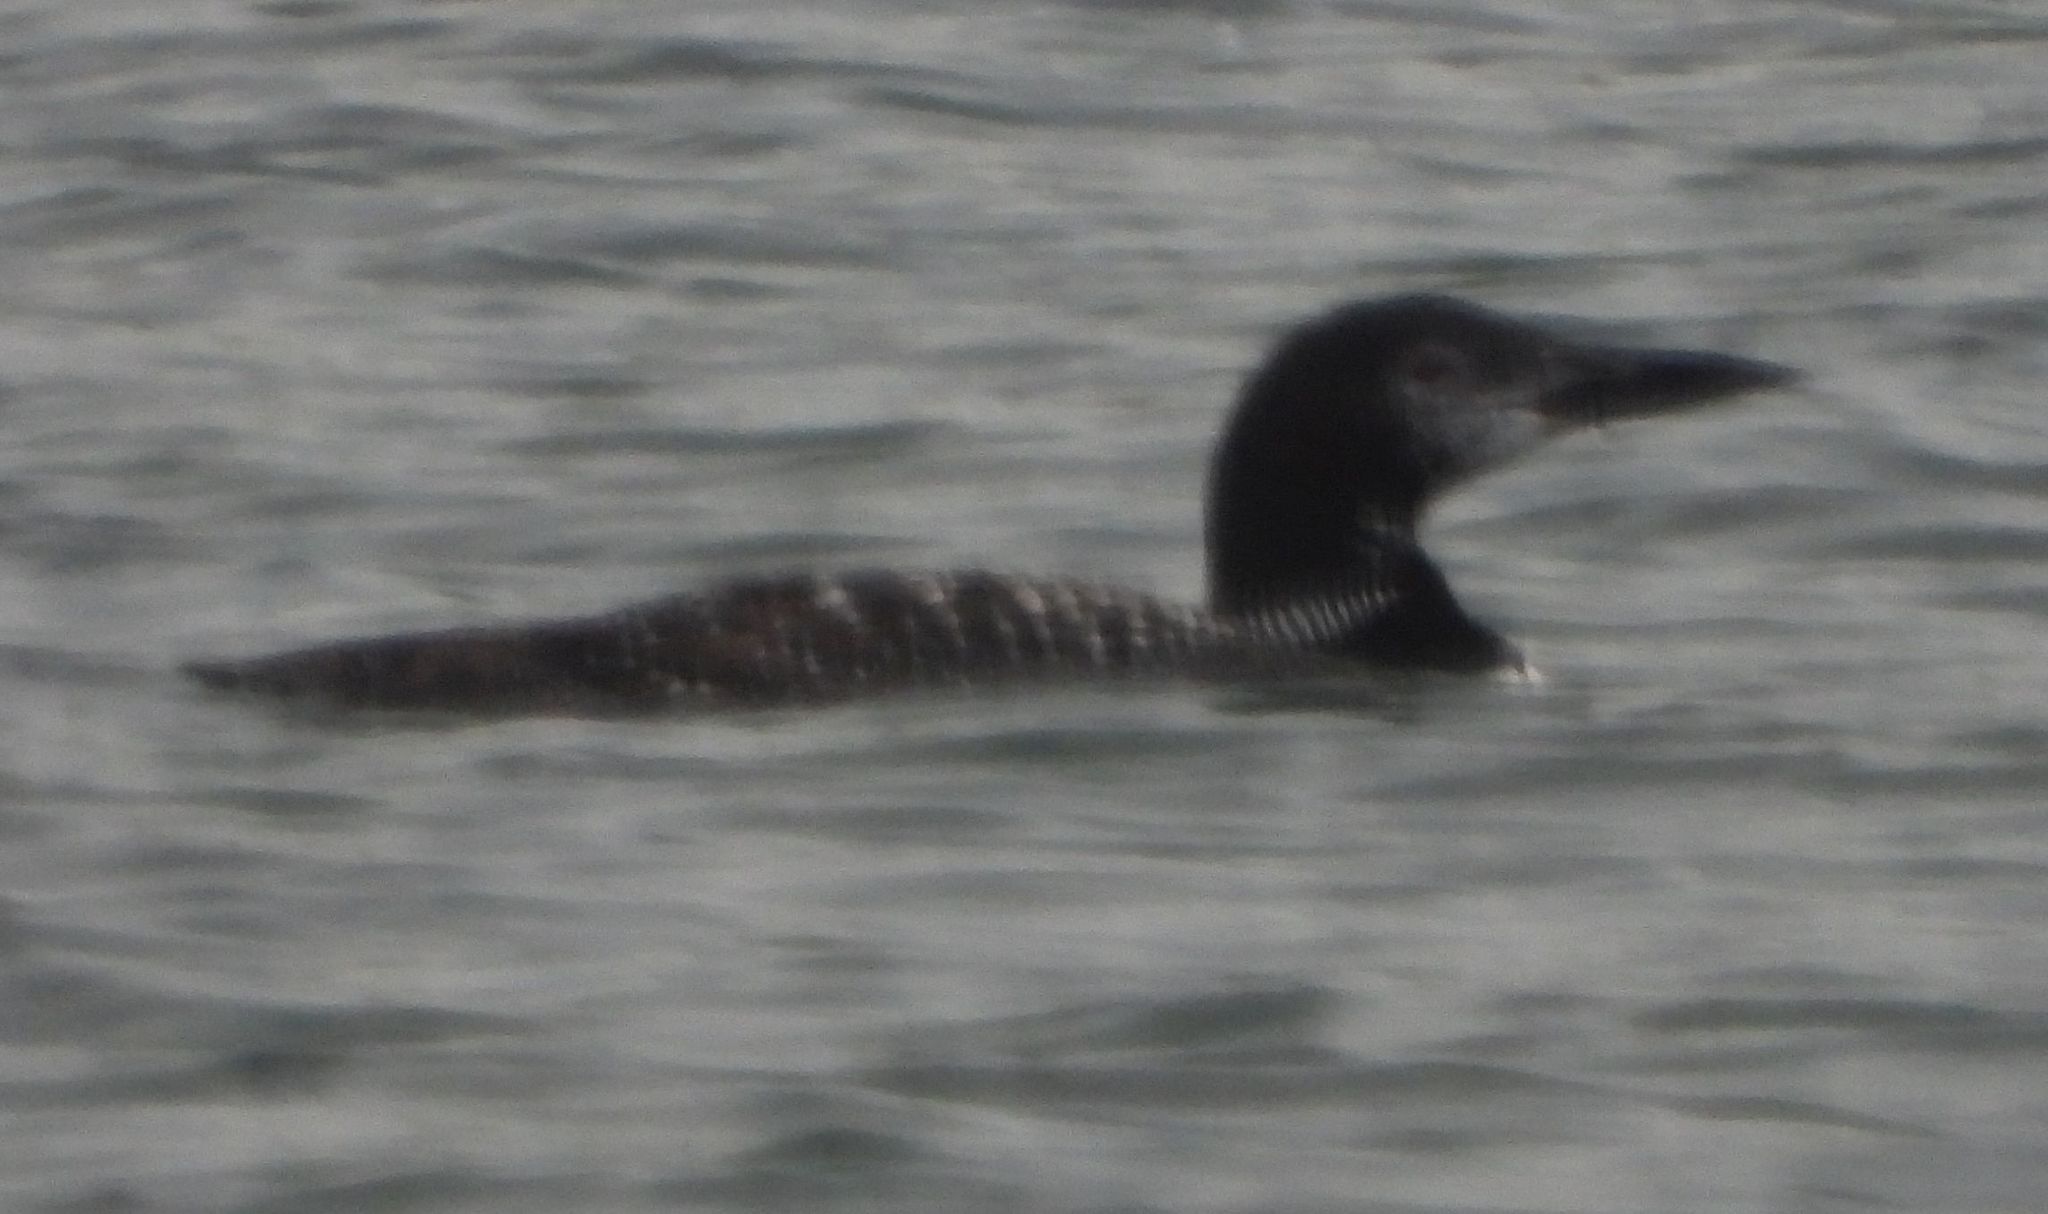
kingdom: Animalia
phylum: Chordata
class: Aves
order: Gaviiformes
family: Gaviidae
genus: Gavia
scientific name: Gavia immer
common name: Common loon
